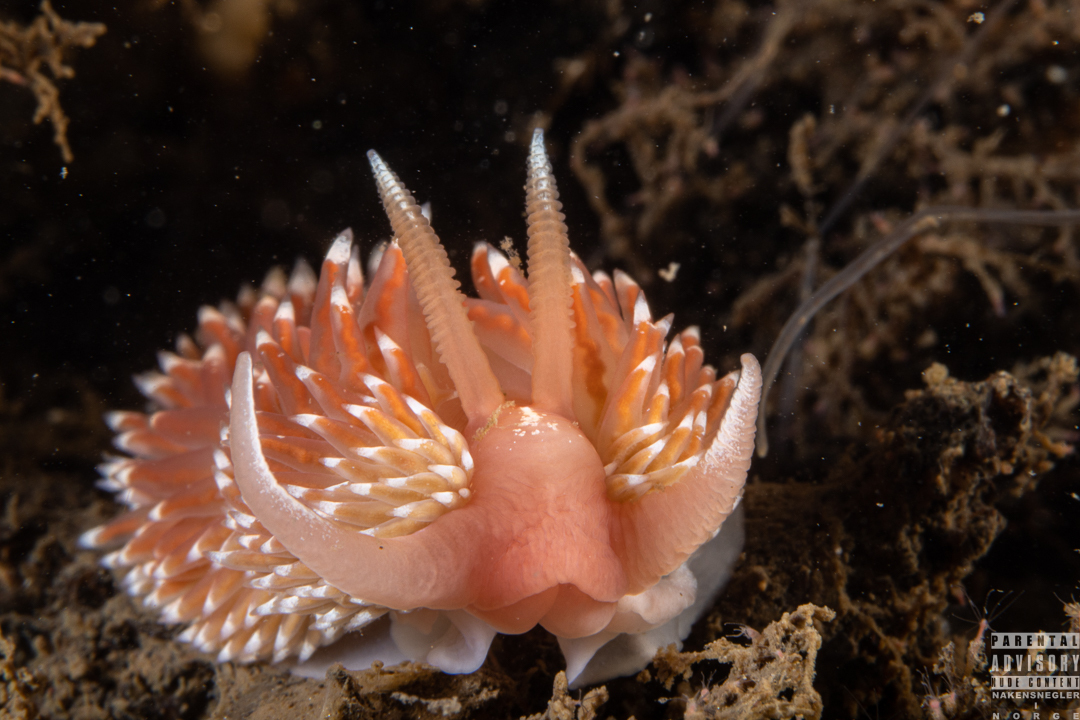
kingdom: Animalia
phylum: Mollusca
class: Gastropoda
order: Nudibranchia
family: Facelinidae
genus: Facelina
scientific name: Facelina bostoniensis
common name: Boston facelina
